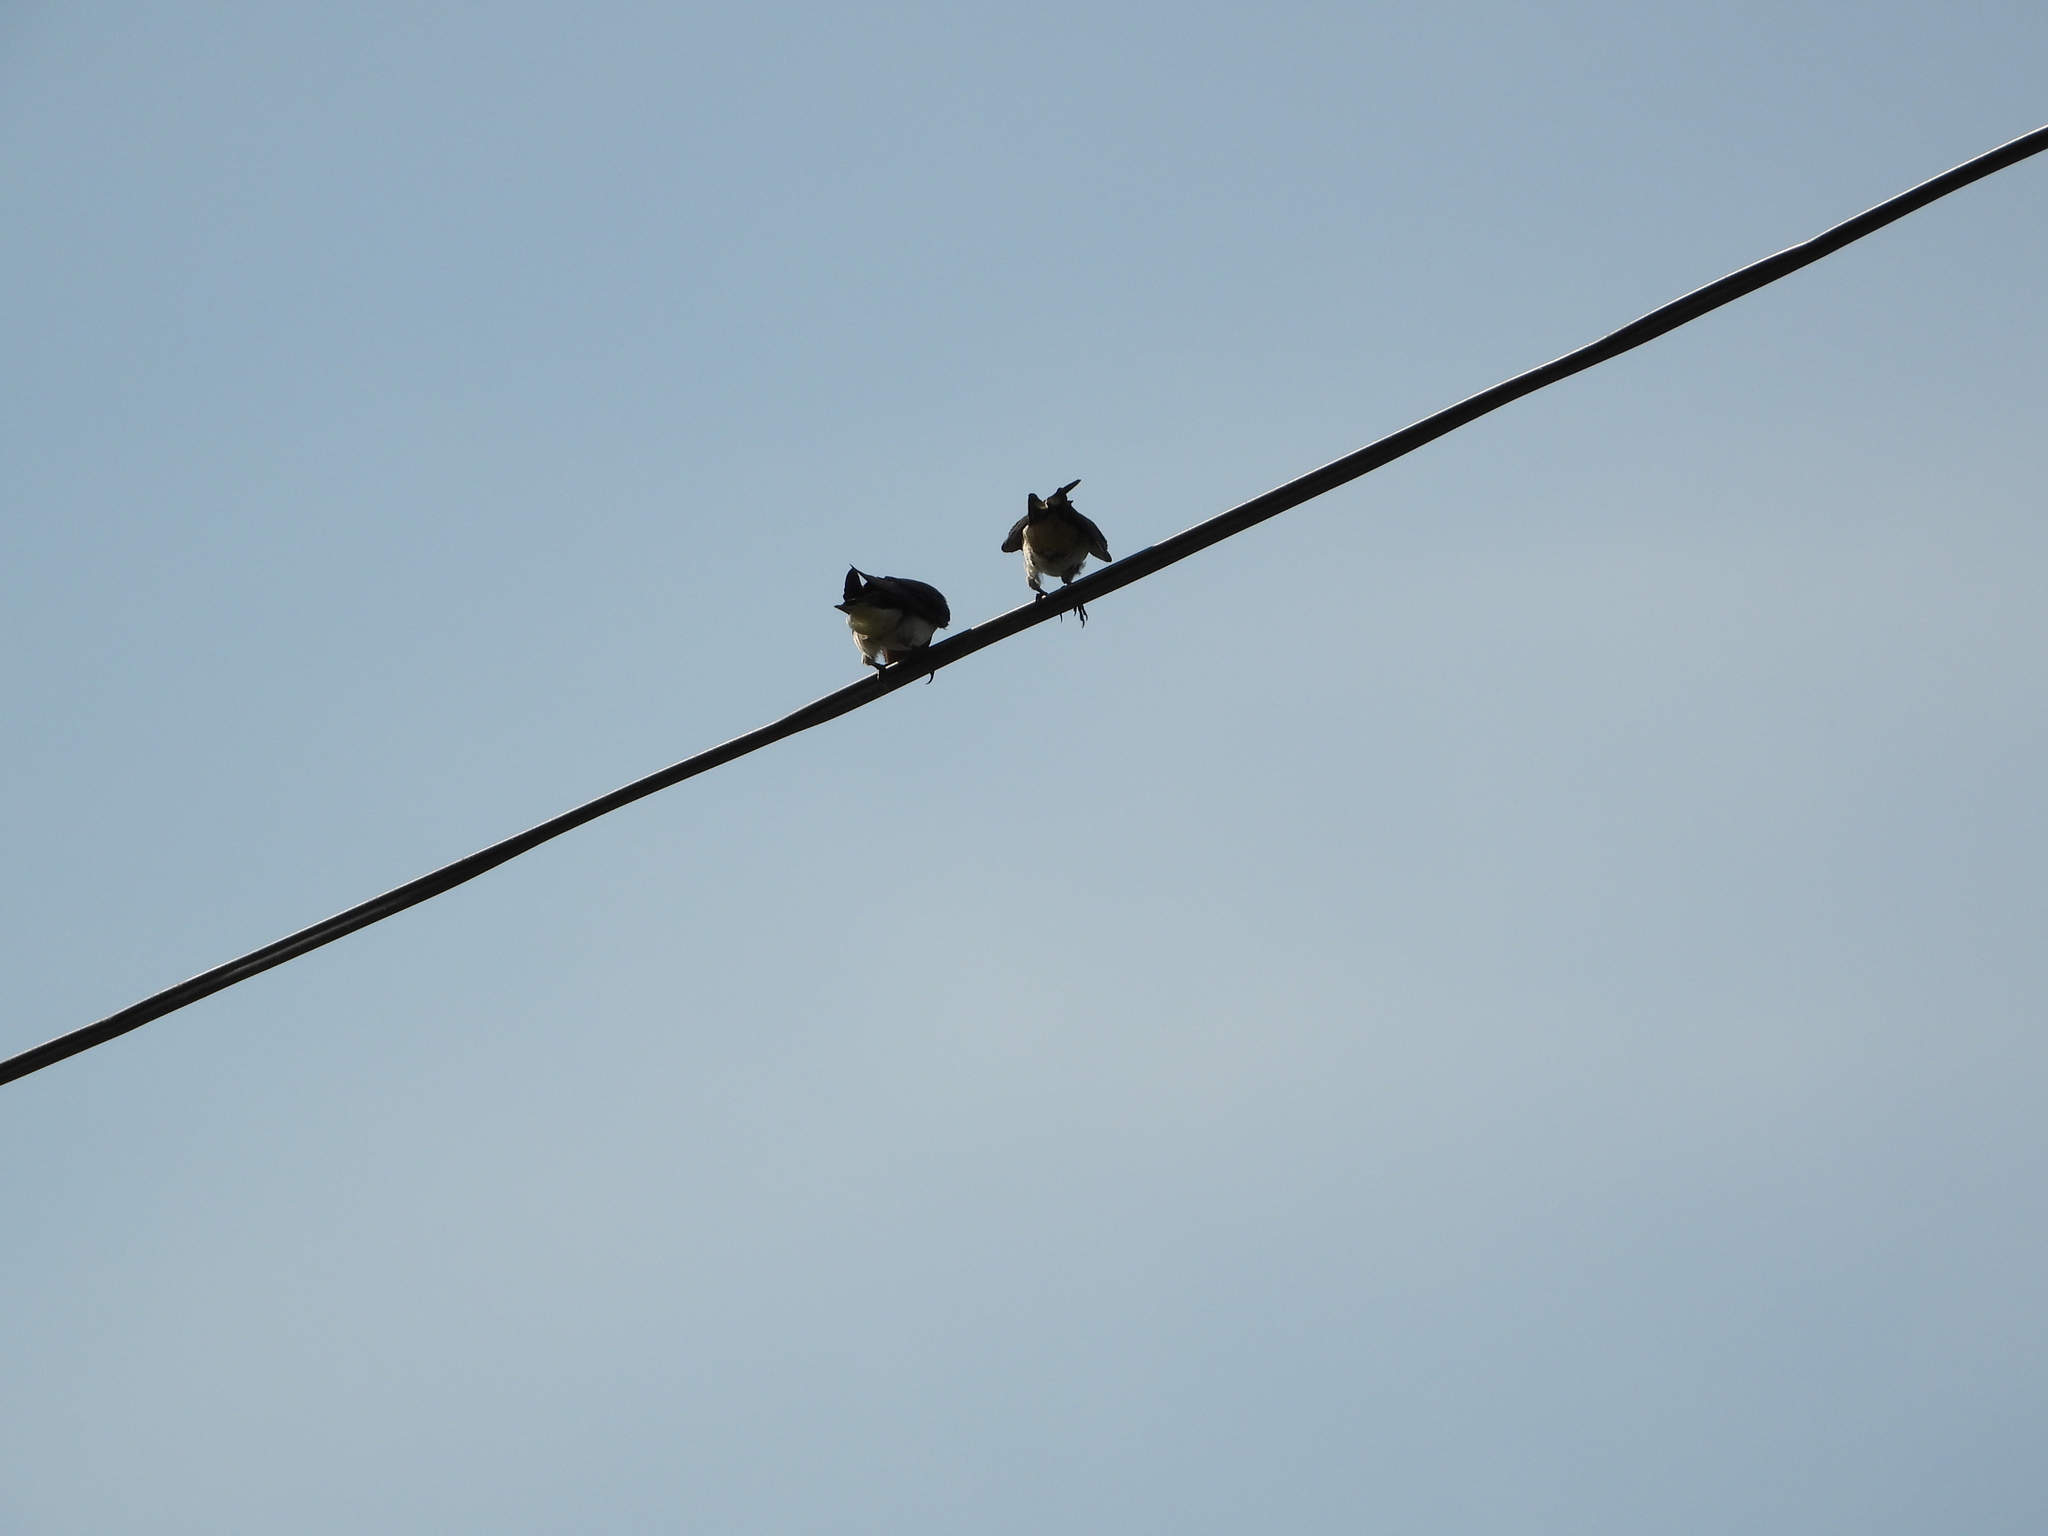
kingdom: Animalia
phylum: Chordata
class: Aves
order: Passeriformes
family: Hirundinidae
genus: Hirundo
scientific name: Hirundo rustica
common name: Barn swallow
